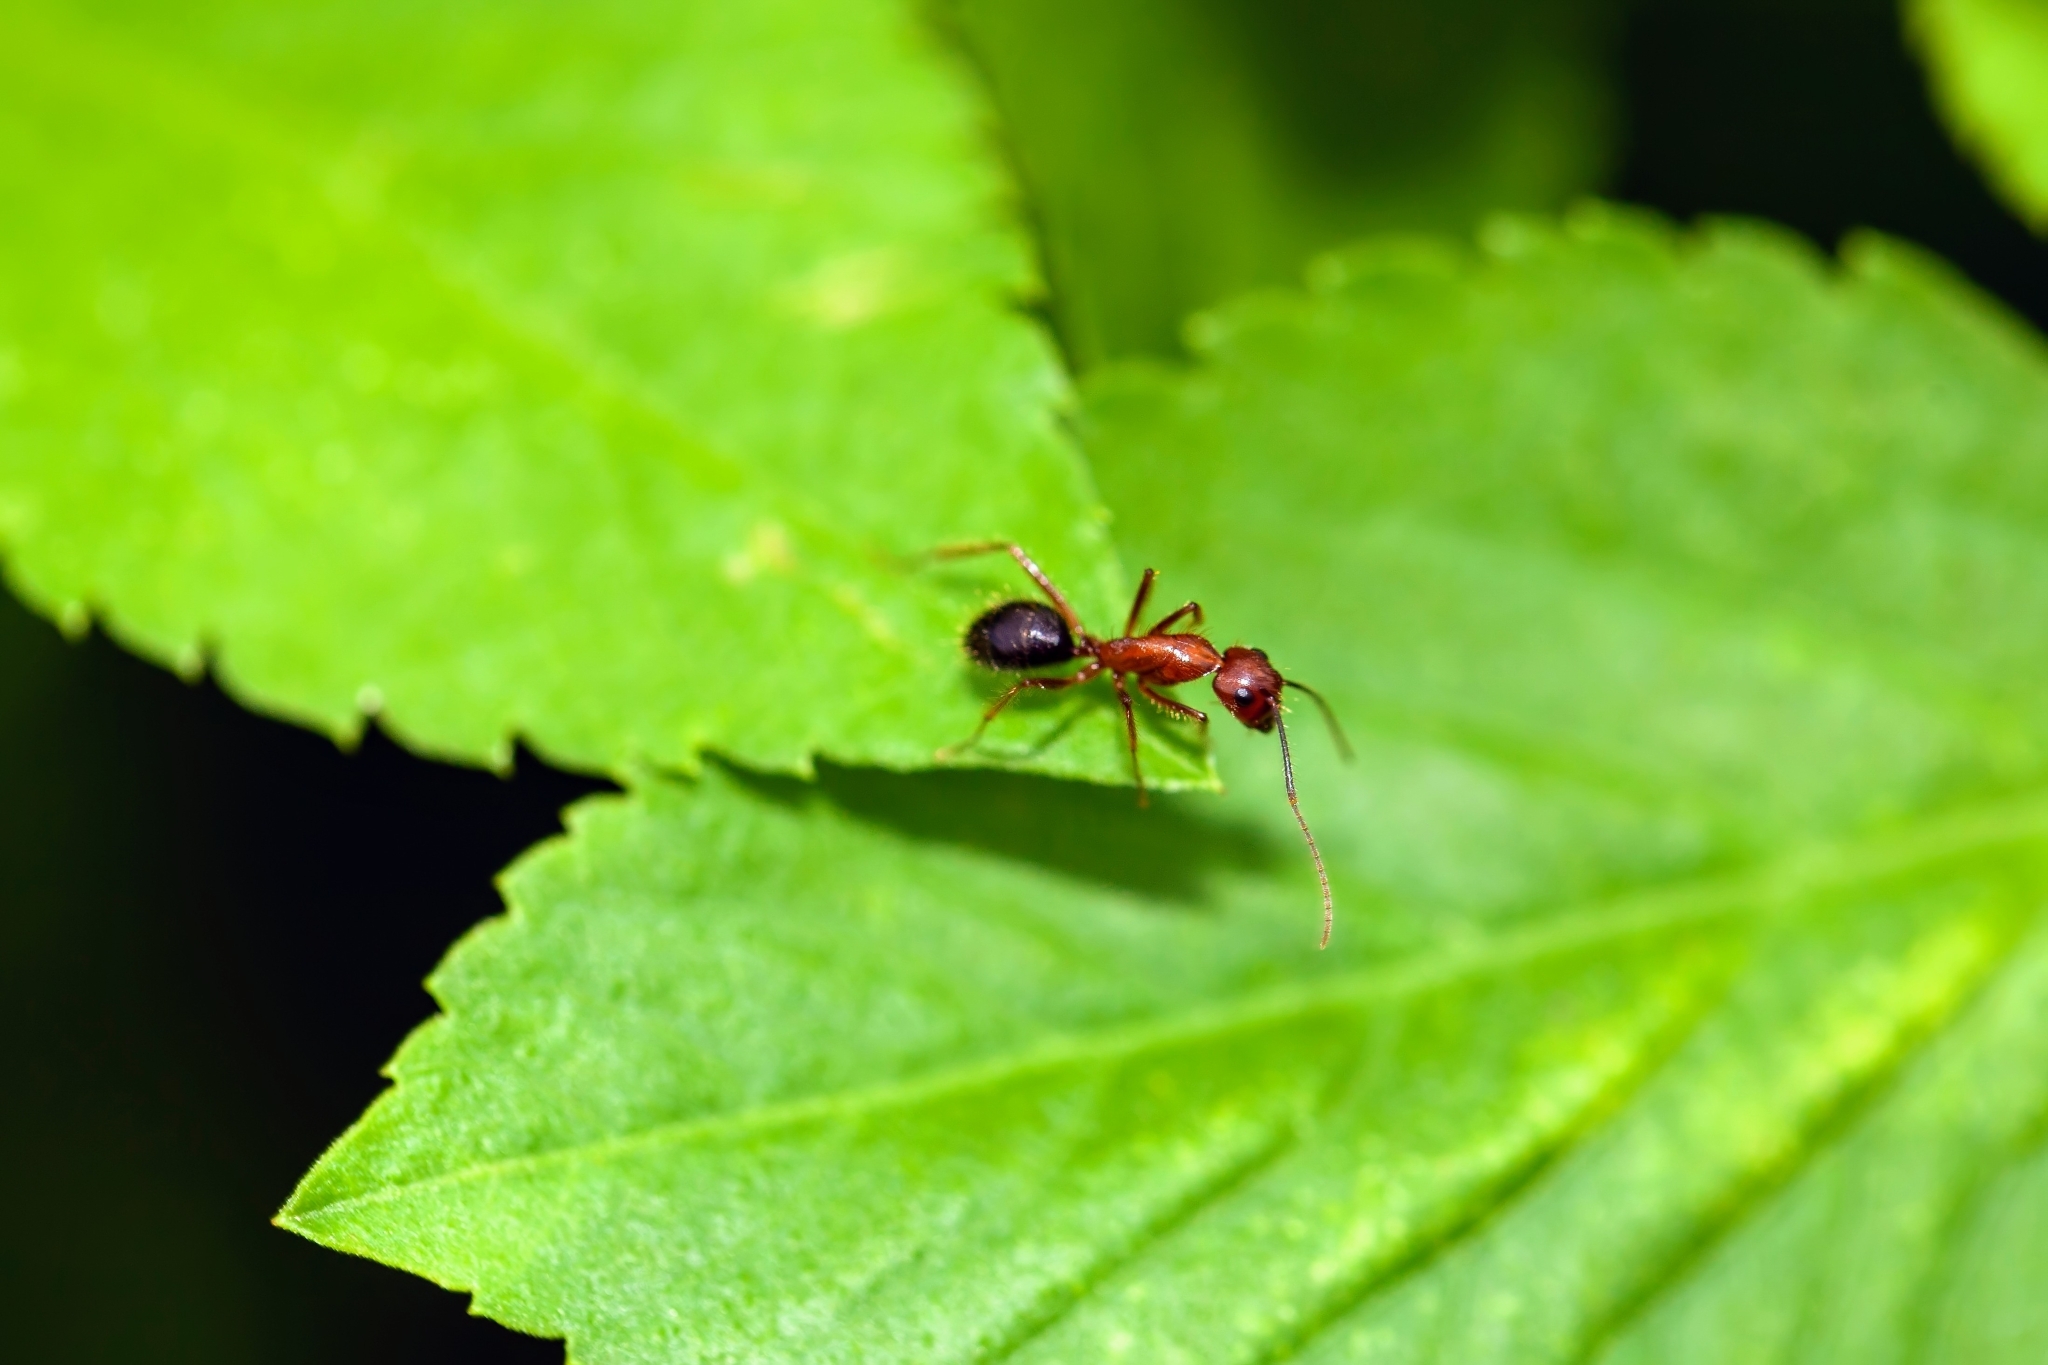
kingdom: Animalia
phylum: Arthropoda
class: Insecta
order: Hymenoptera
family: Formicidae
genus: Camponotus
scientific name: Camponotus floridanus
